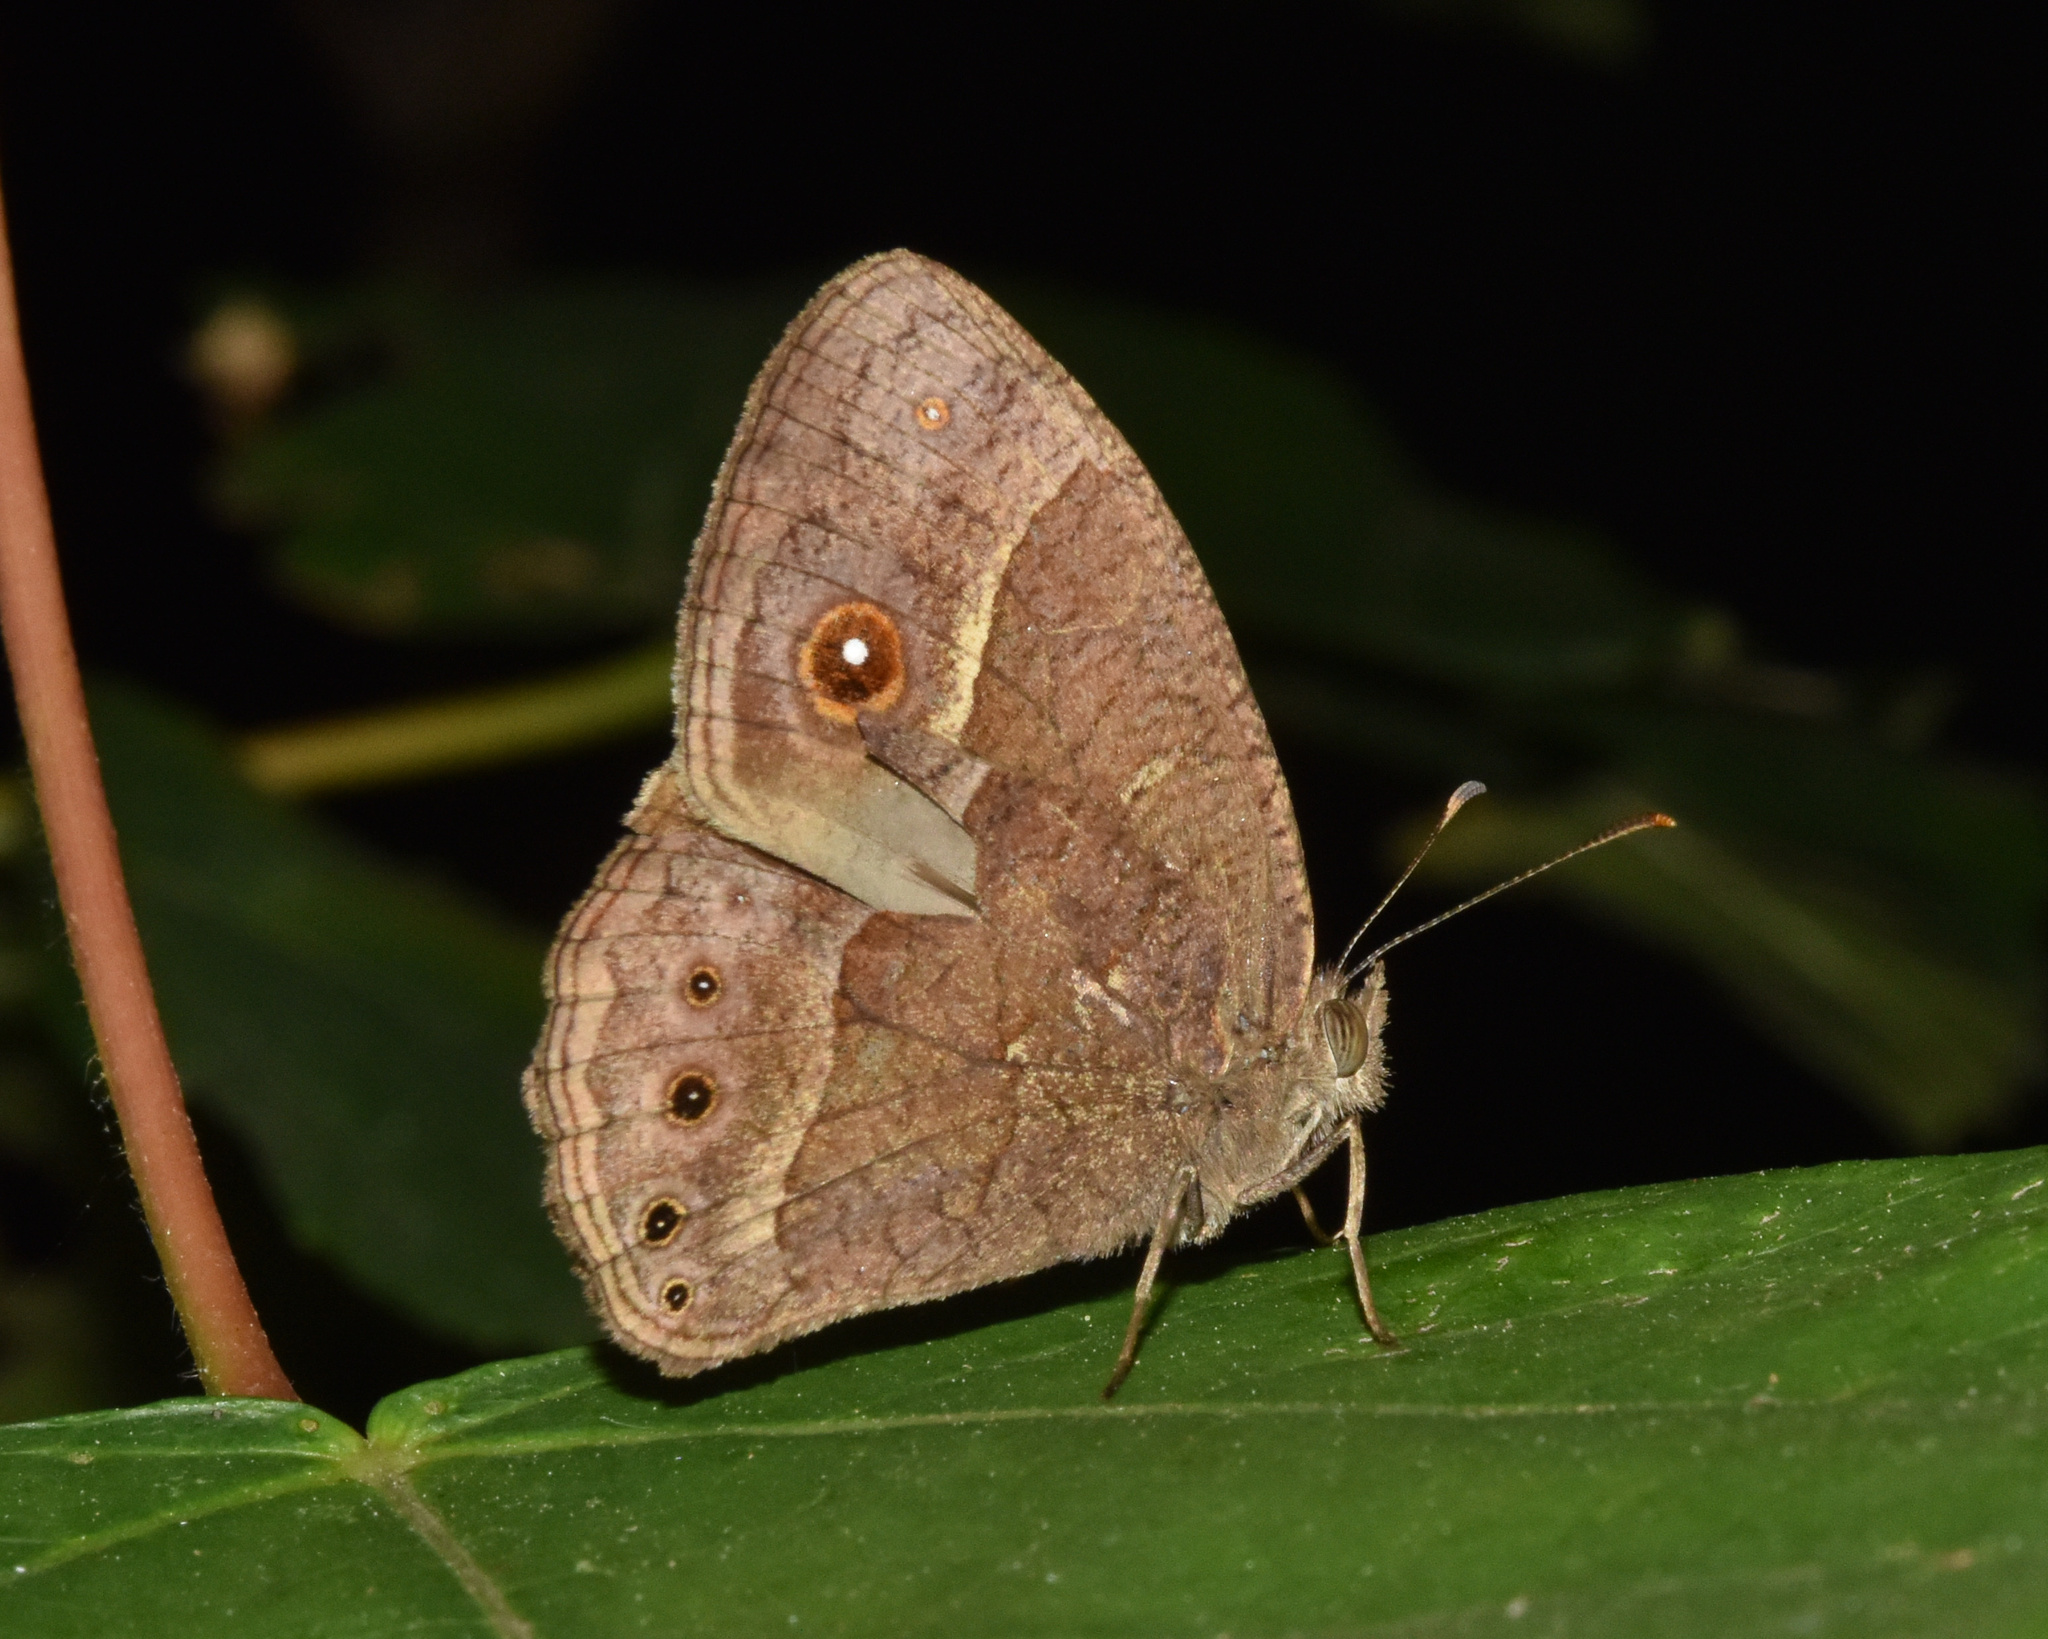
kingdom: Animalia
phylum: Arthropoda
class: Insecta
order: Lepidoptera
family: Nymphalidae
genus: Mycalesis
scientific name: Mycalesis anynana
